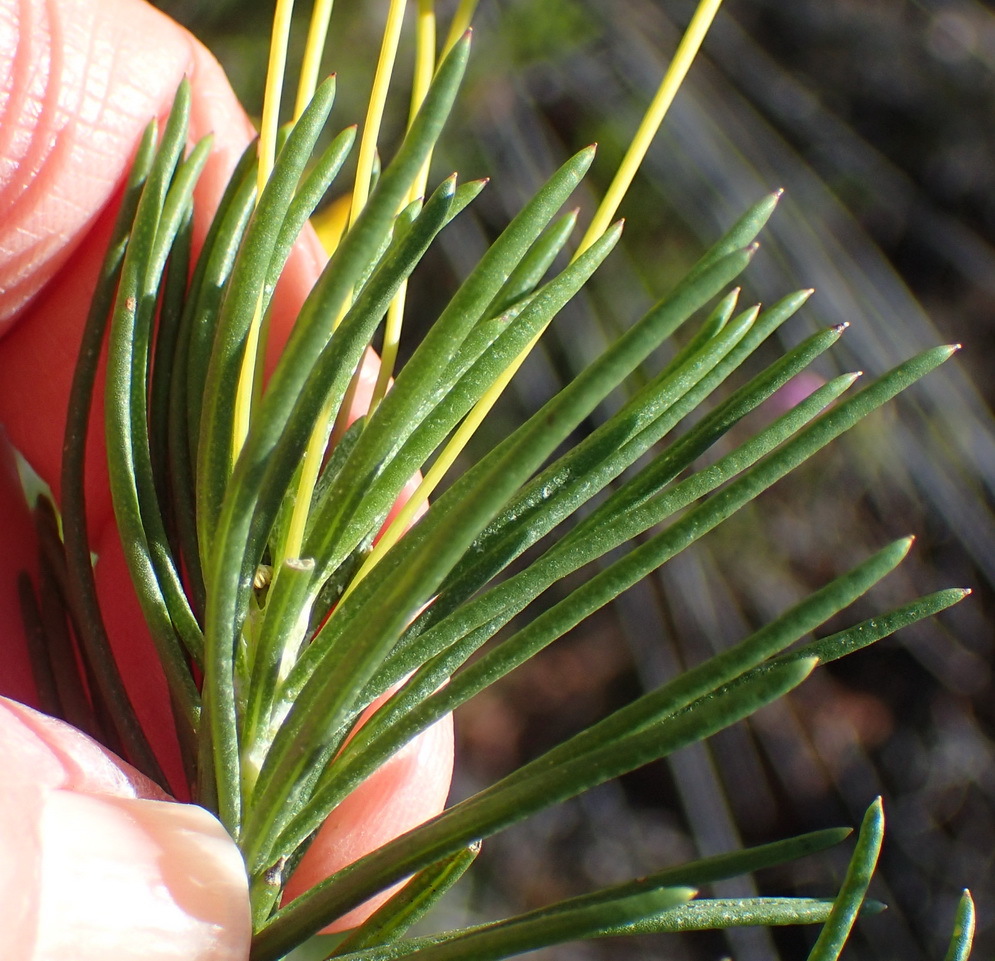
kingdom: Plantae
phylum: Tracheophyta
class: Magnoliopsida
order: Asterales
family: Asteraceae
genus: Euryops
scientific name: Euryops rehmannii
